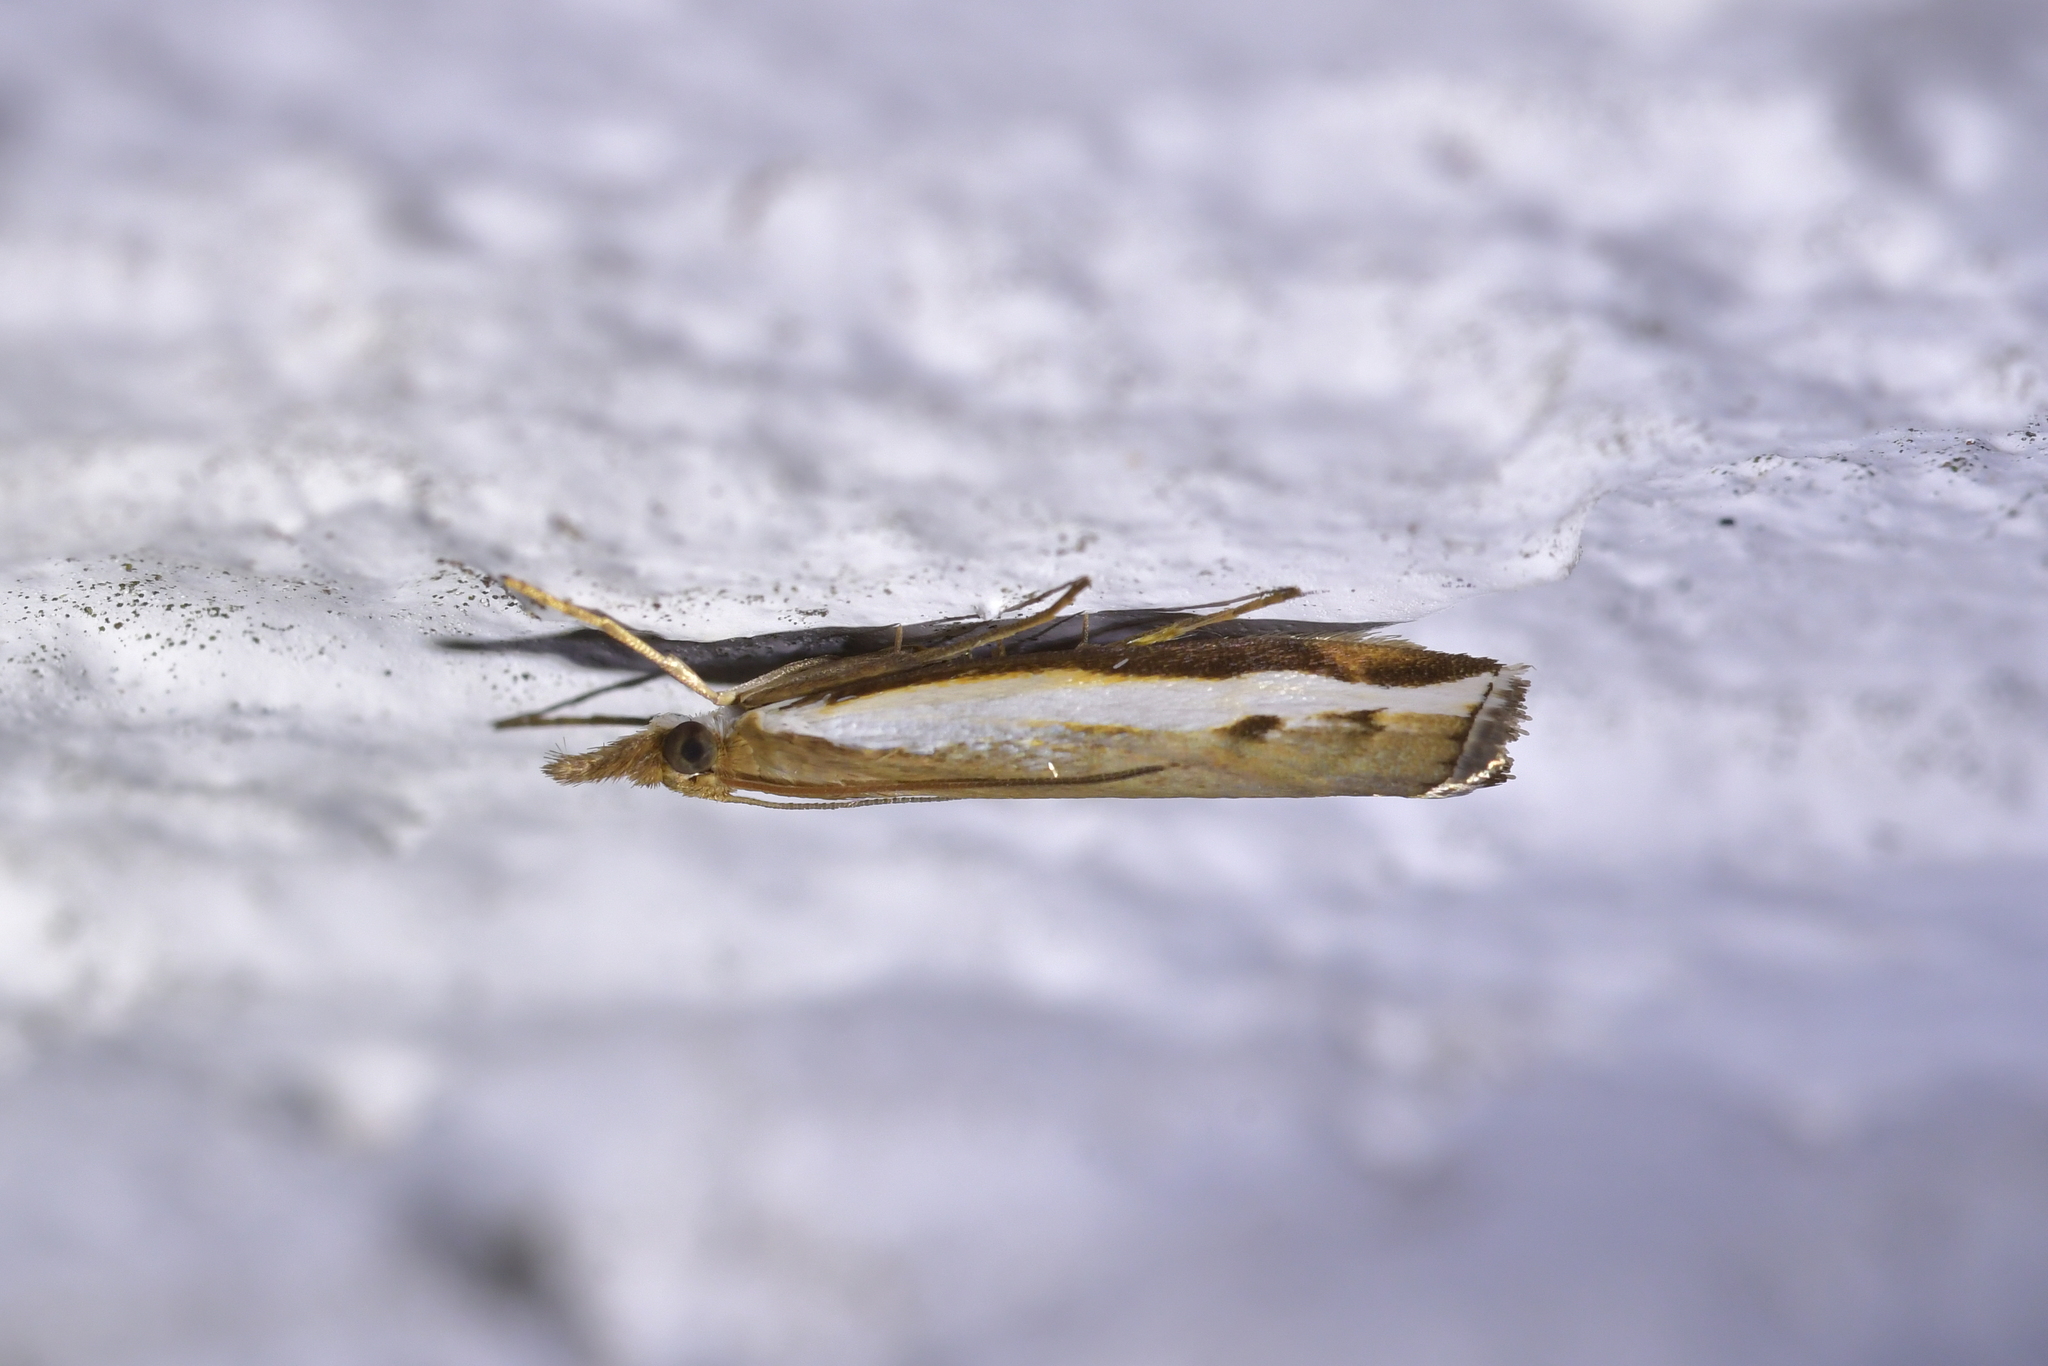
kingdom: Animalia
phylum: Arthropoda
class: Insecta
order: Lepidoptera
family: Crambidae
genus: Orocrambus
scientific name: Orocrambus flexuosellus
